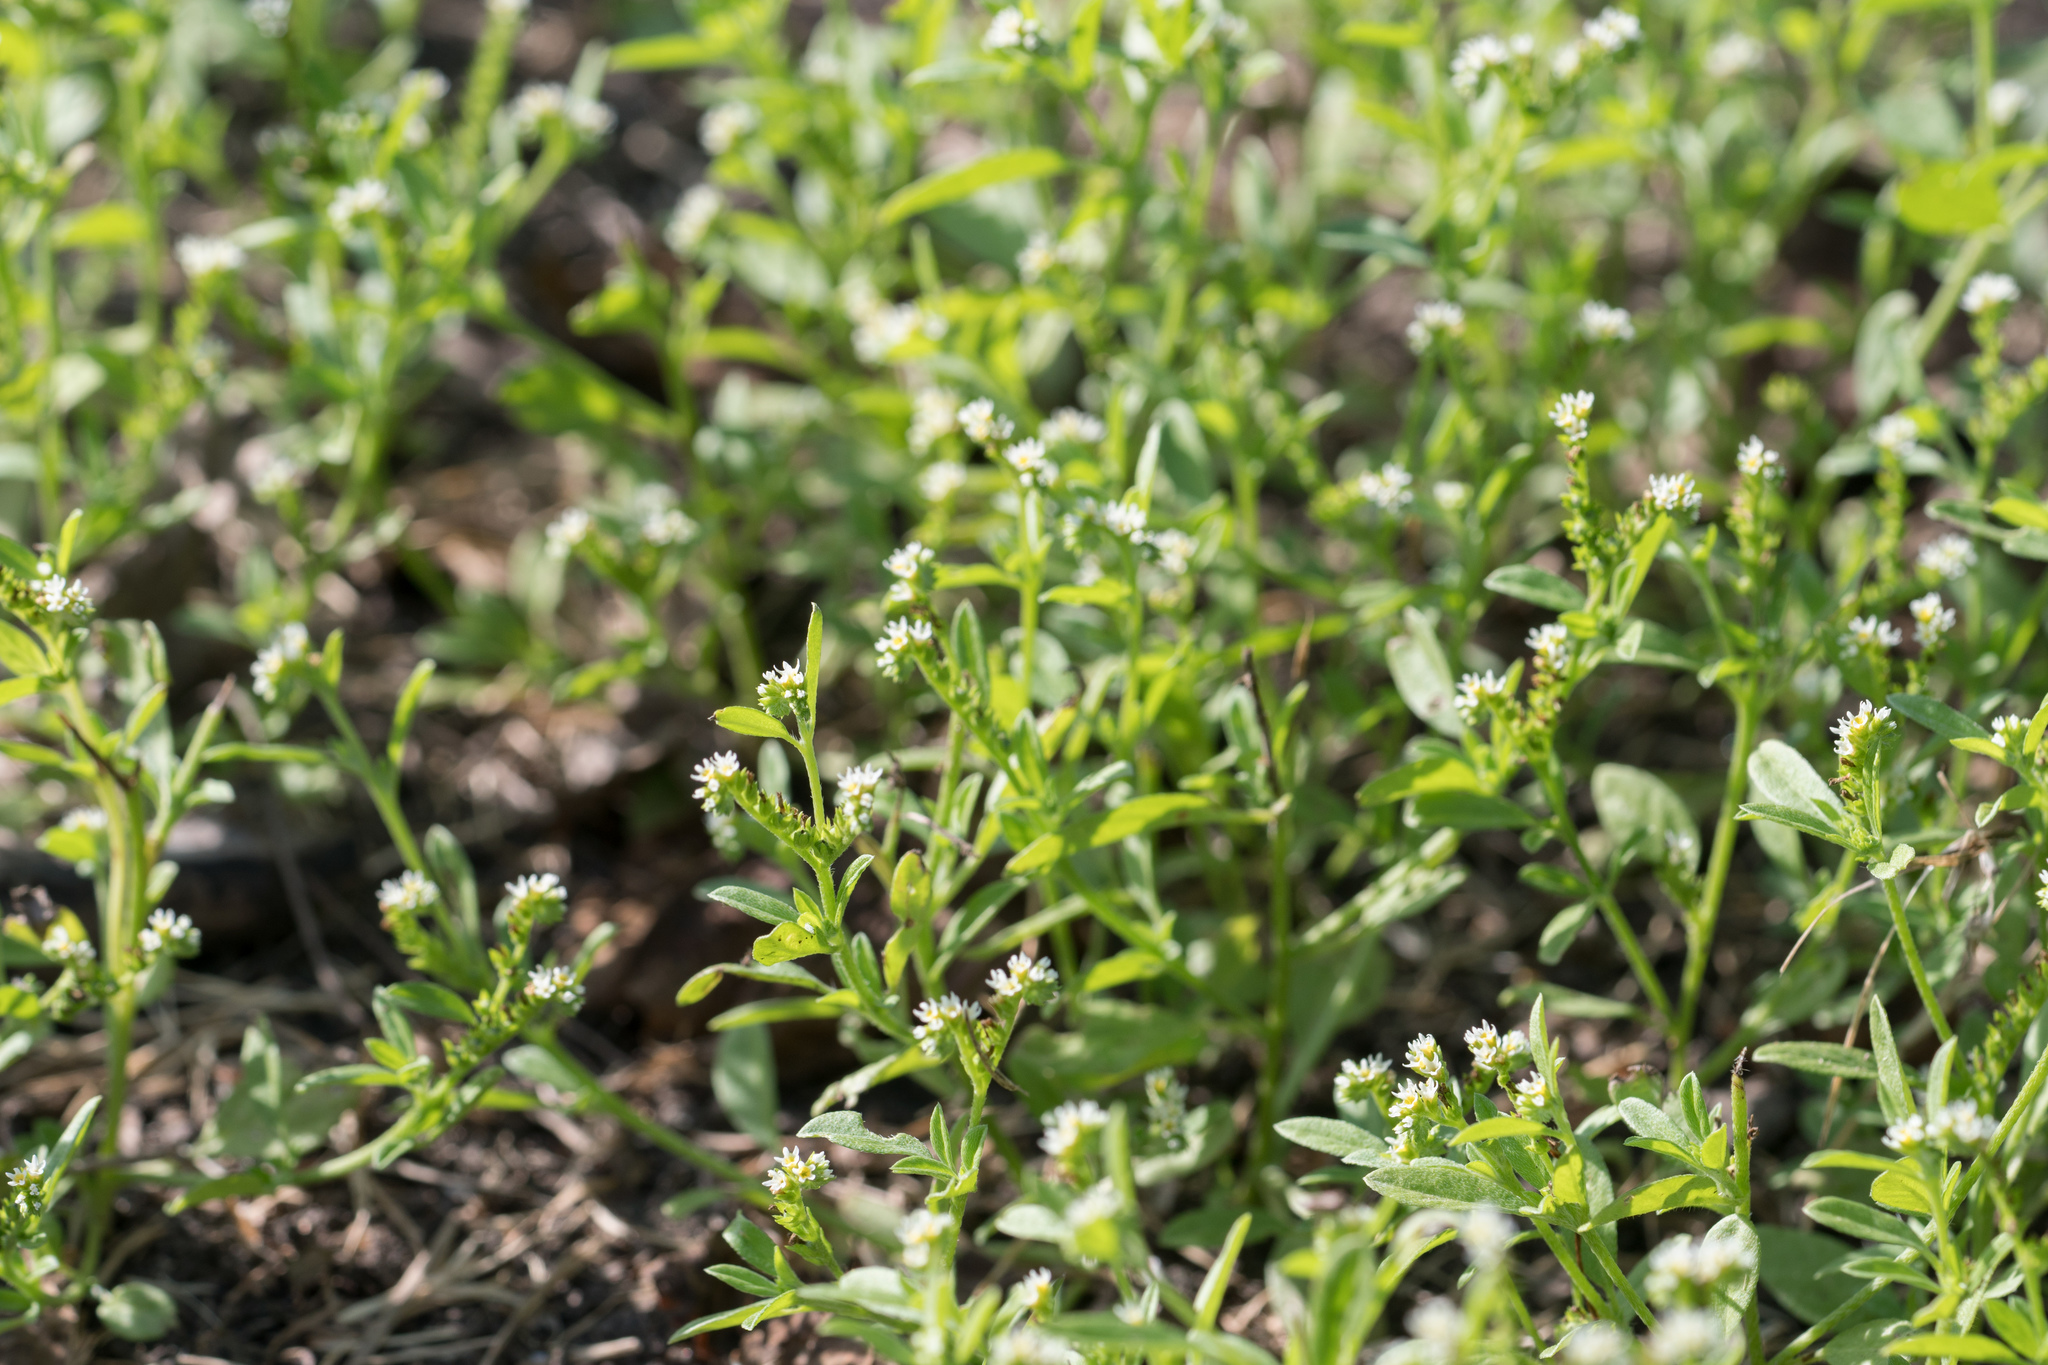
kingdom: Plantae
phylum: Tracheophyta
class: Magnoliopsida
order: Boraginales
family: Heliotropiaceae
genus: Euploca
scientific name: Euploca procumbens
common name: Fourspike heliotrope
